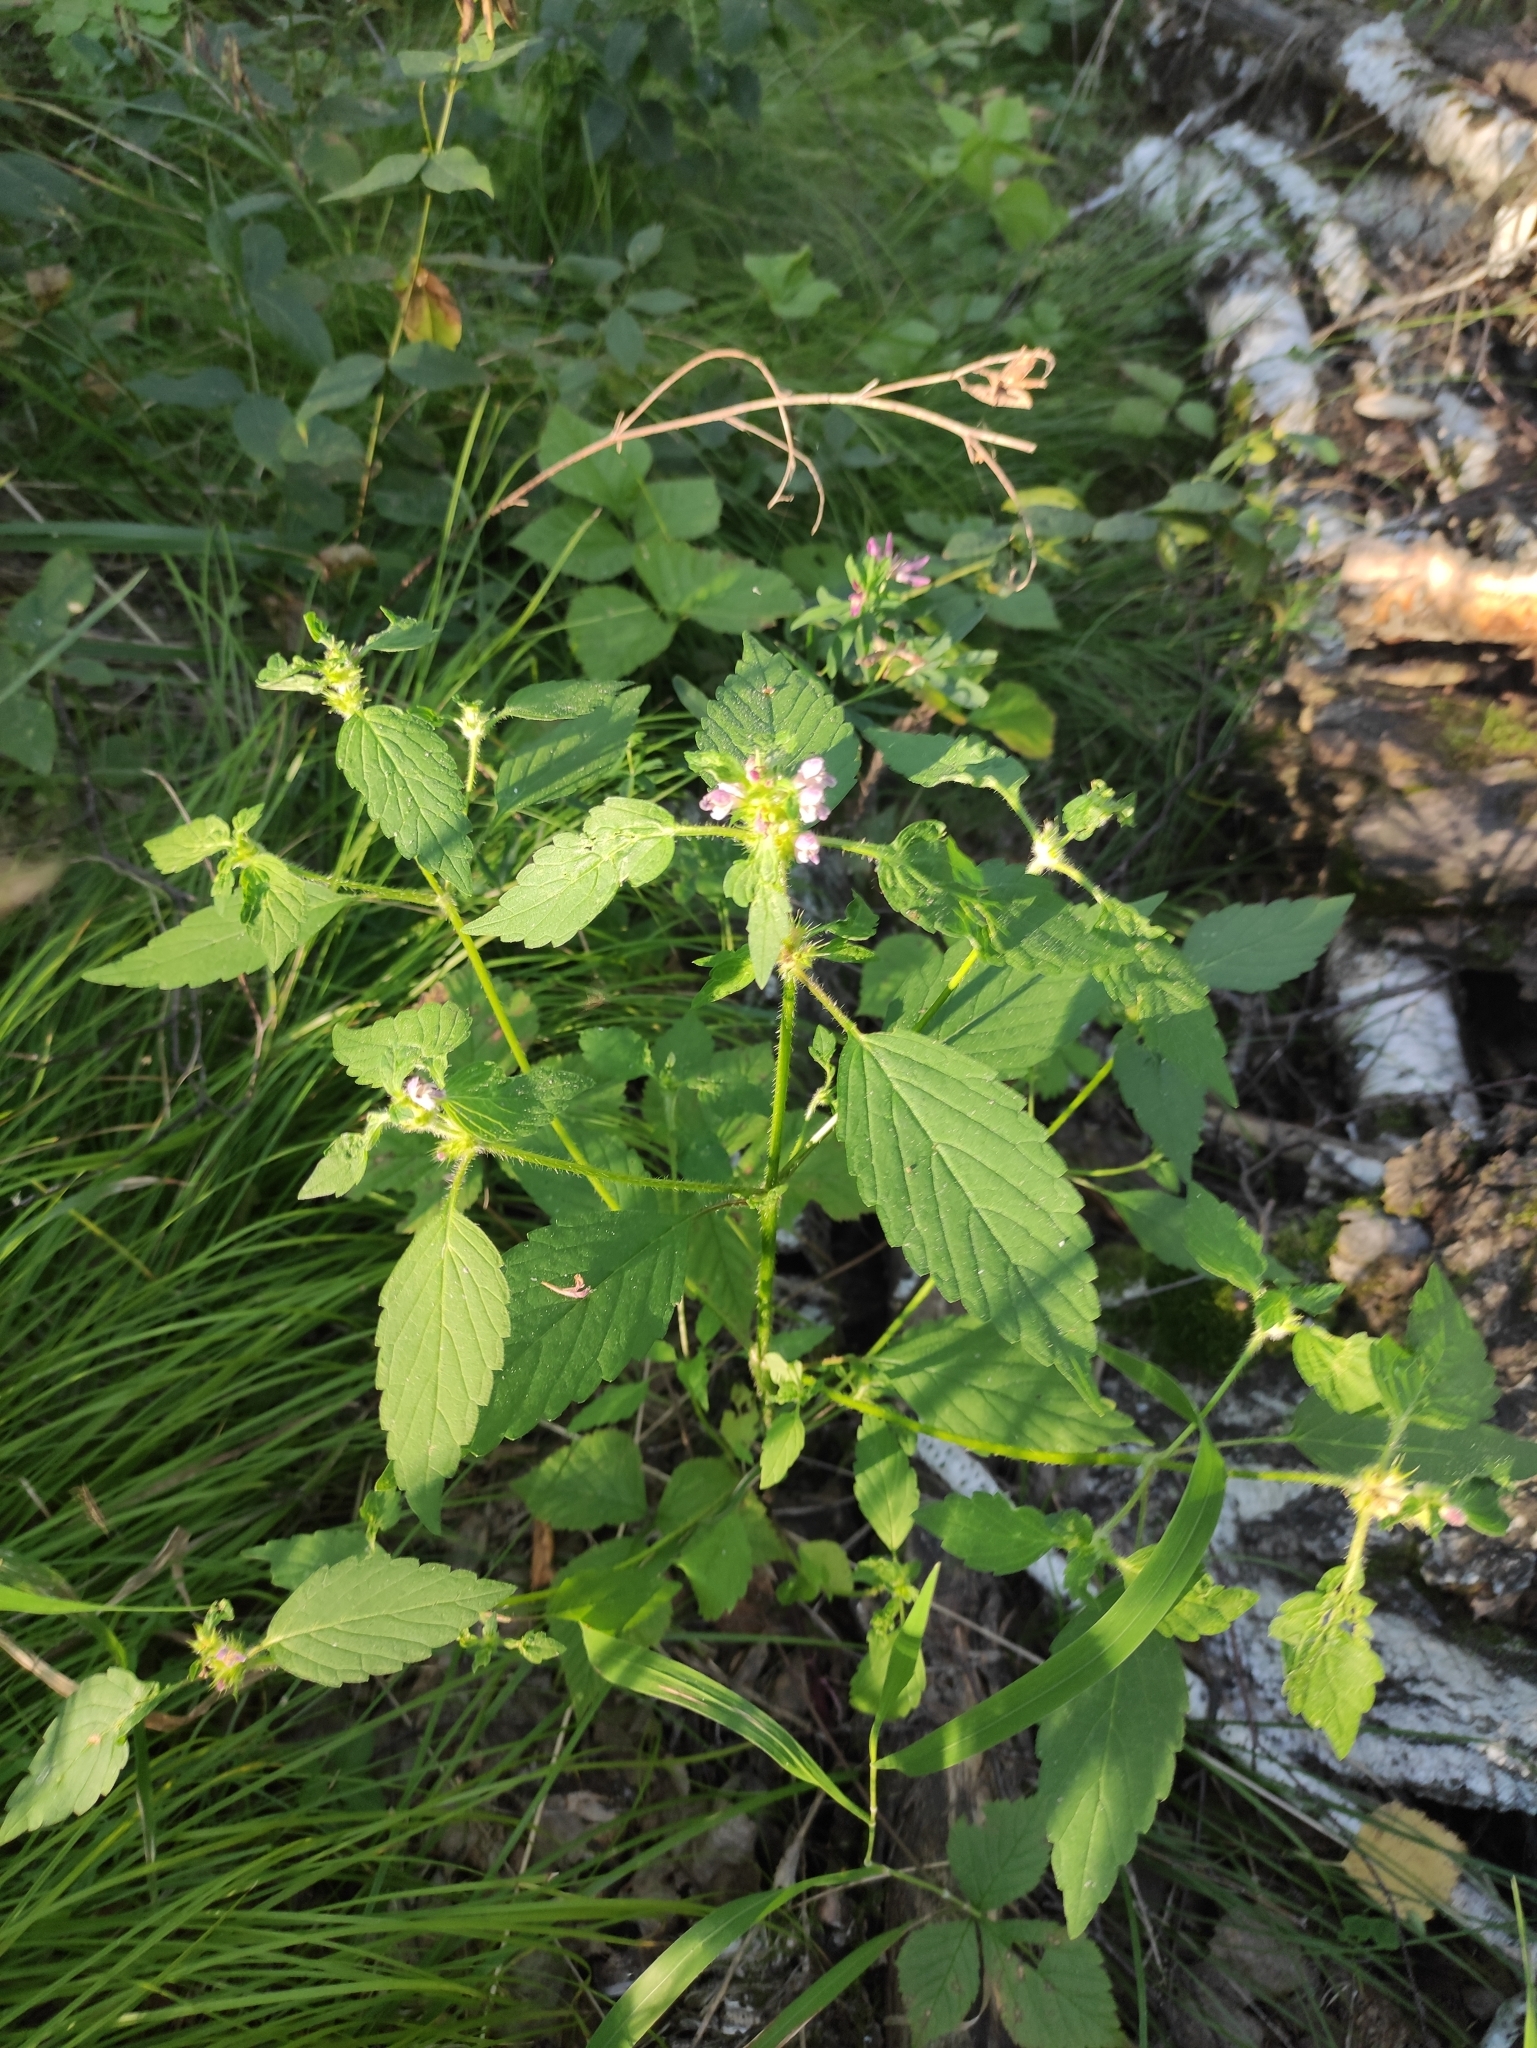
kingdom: Plantae
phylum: Tracheophyta
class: Magnoliopsida
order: Lamiales
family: Lamiaceae
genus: Galeopsis
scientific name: Galeopsis bifida
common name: Bifid hemp-nettle
